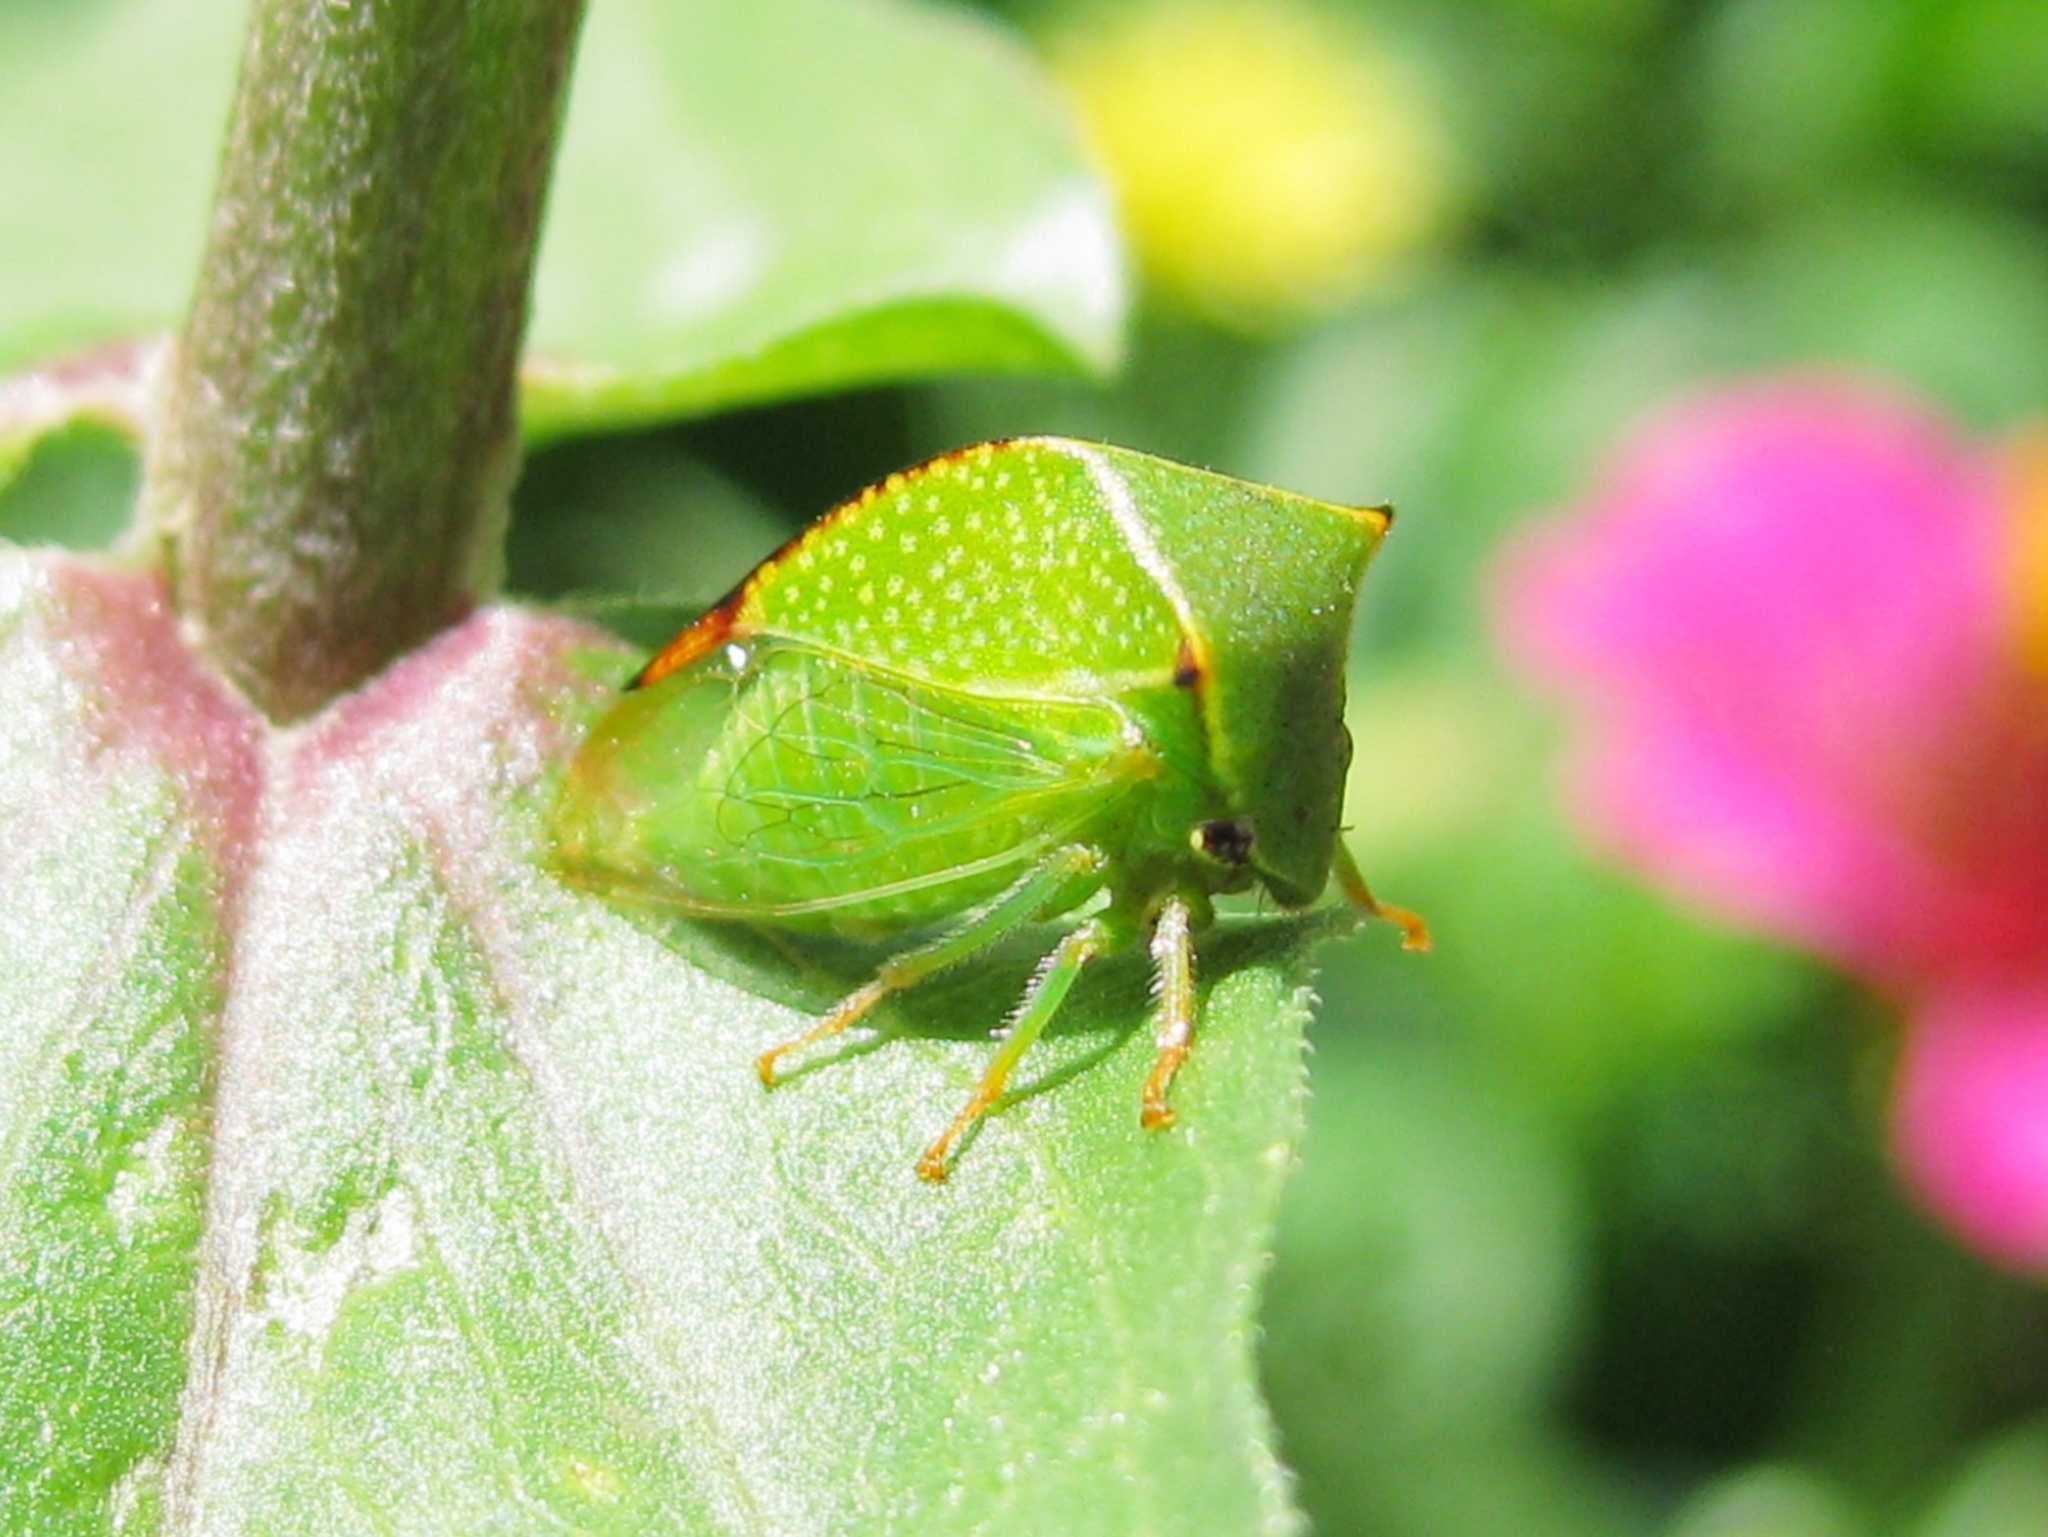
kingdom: Animalia
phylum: Arthropoda
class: Insecta
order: Hemiptera
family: Membracidae
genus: Stictocephala
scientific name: Stictocephala bisonia
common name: American buffalo treehopper
